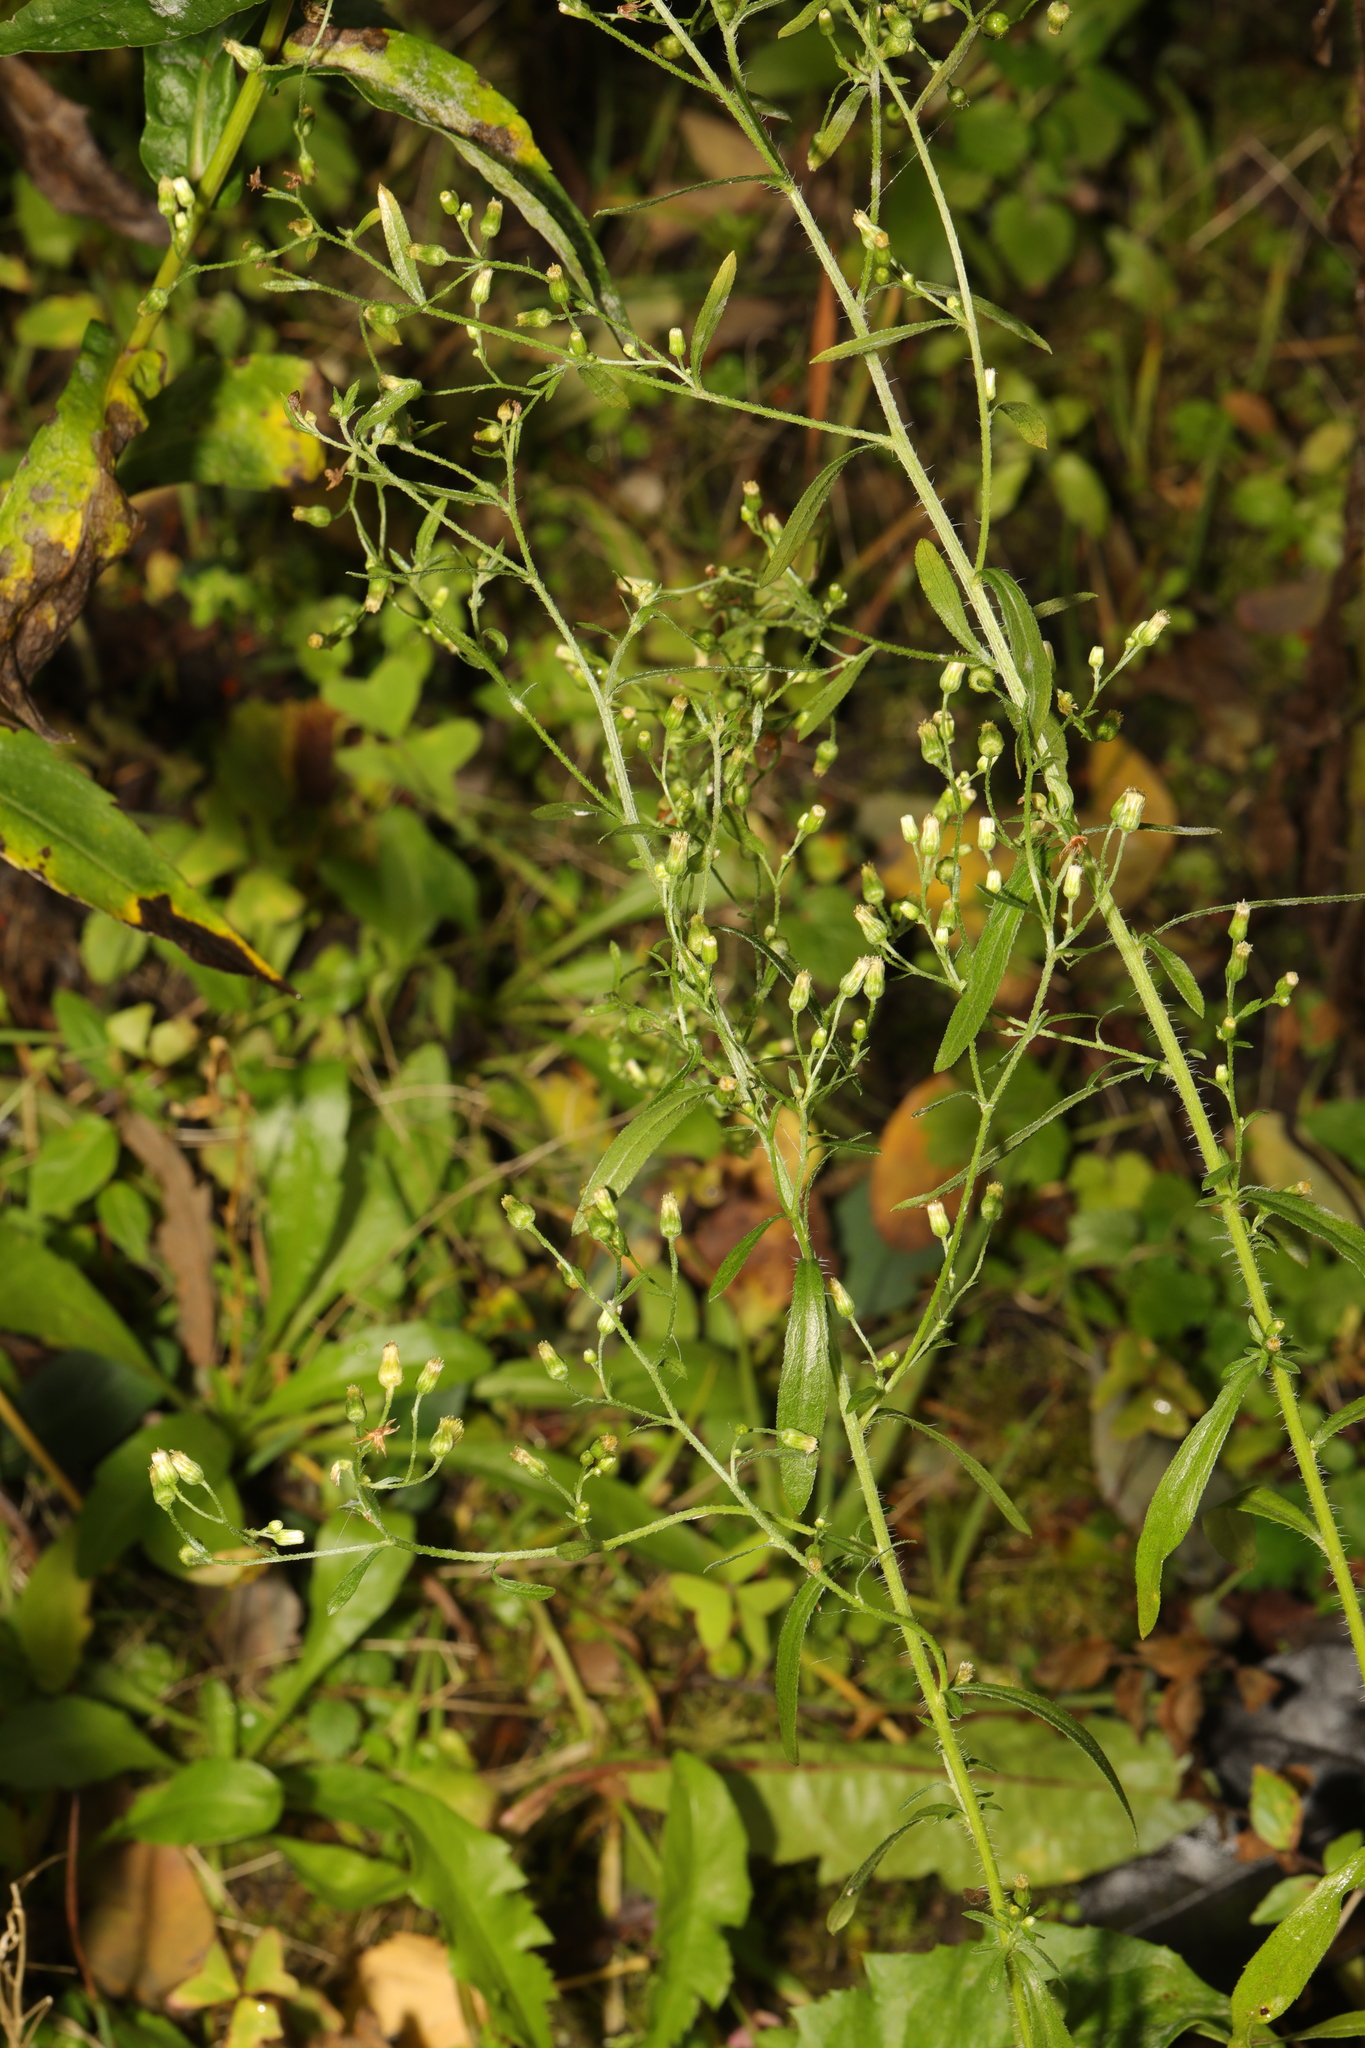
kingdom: Plantae
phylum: Tracheophyta
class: Magnoliopsida
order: Asterales
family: Asteraceae
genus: Erigeron
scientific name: Erigeron canadensis
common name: Canadian fleabane
